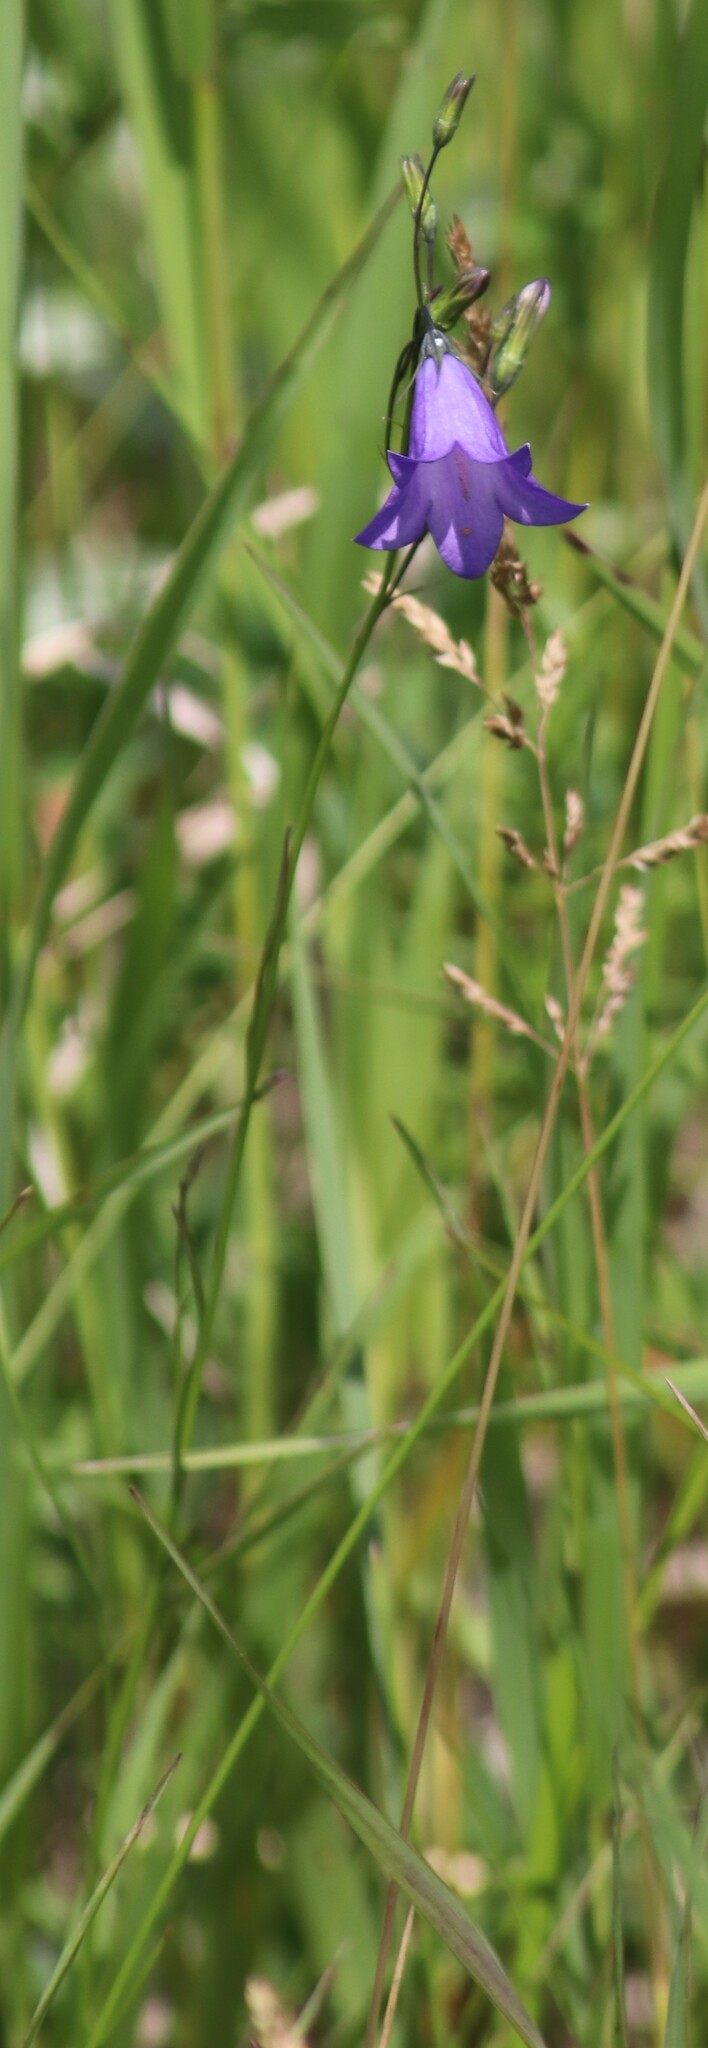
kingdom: Plantae
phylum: Tracheophyta
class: Magnoliopsida
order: Asterales
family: Campanulaceae
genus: Campanula
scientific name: Campanula petiolata
